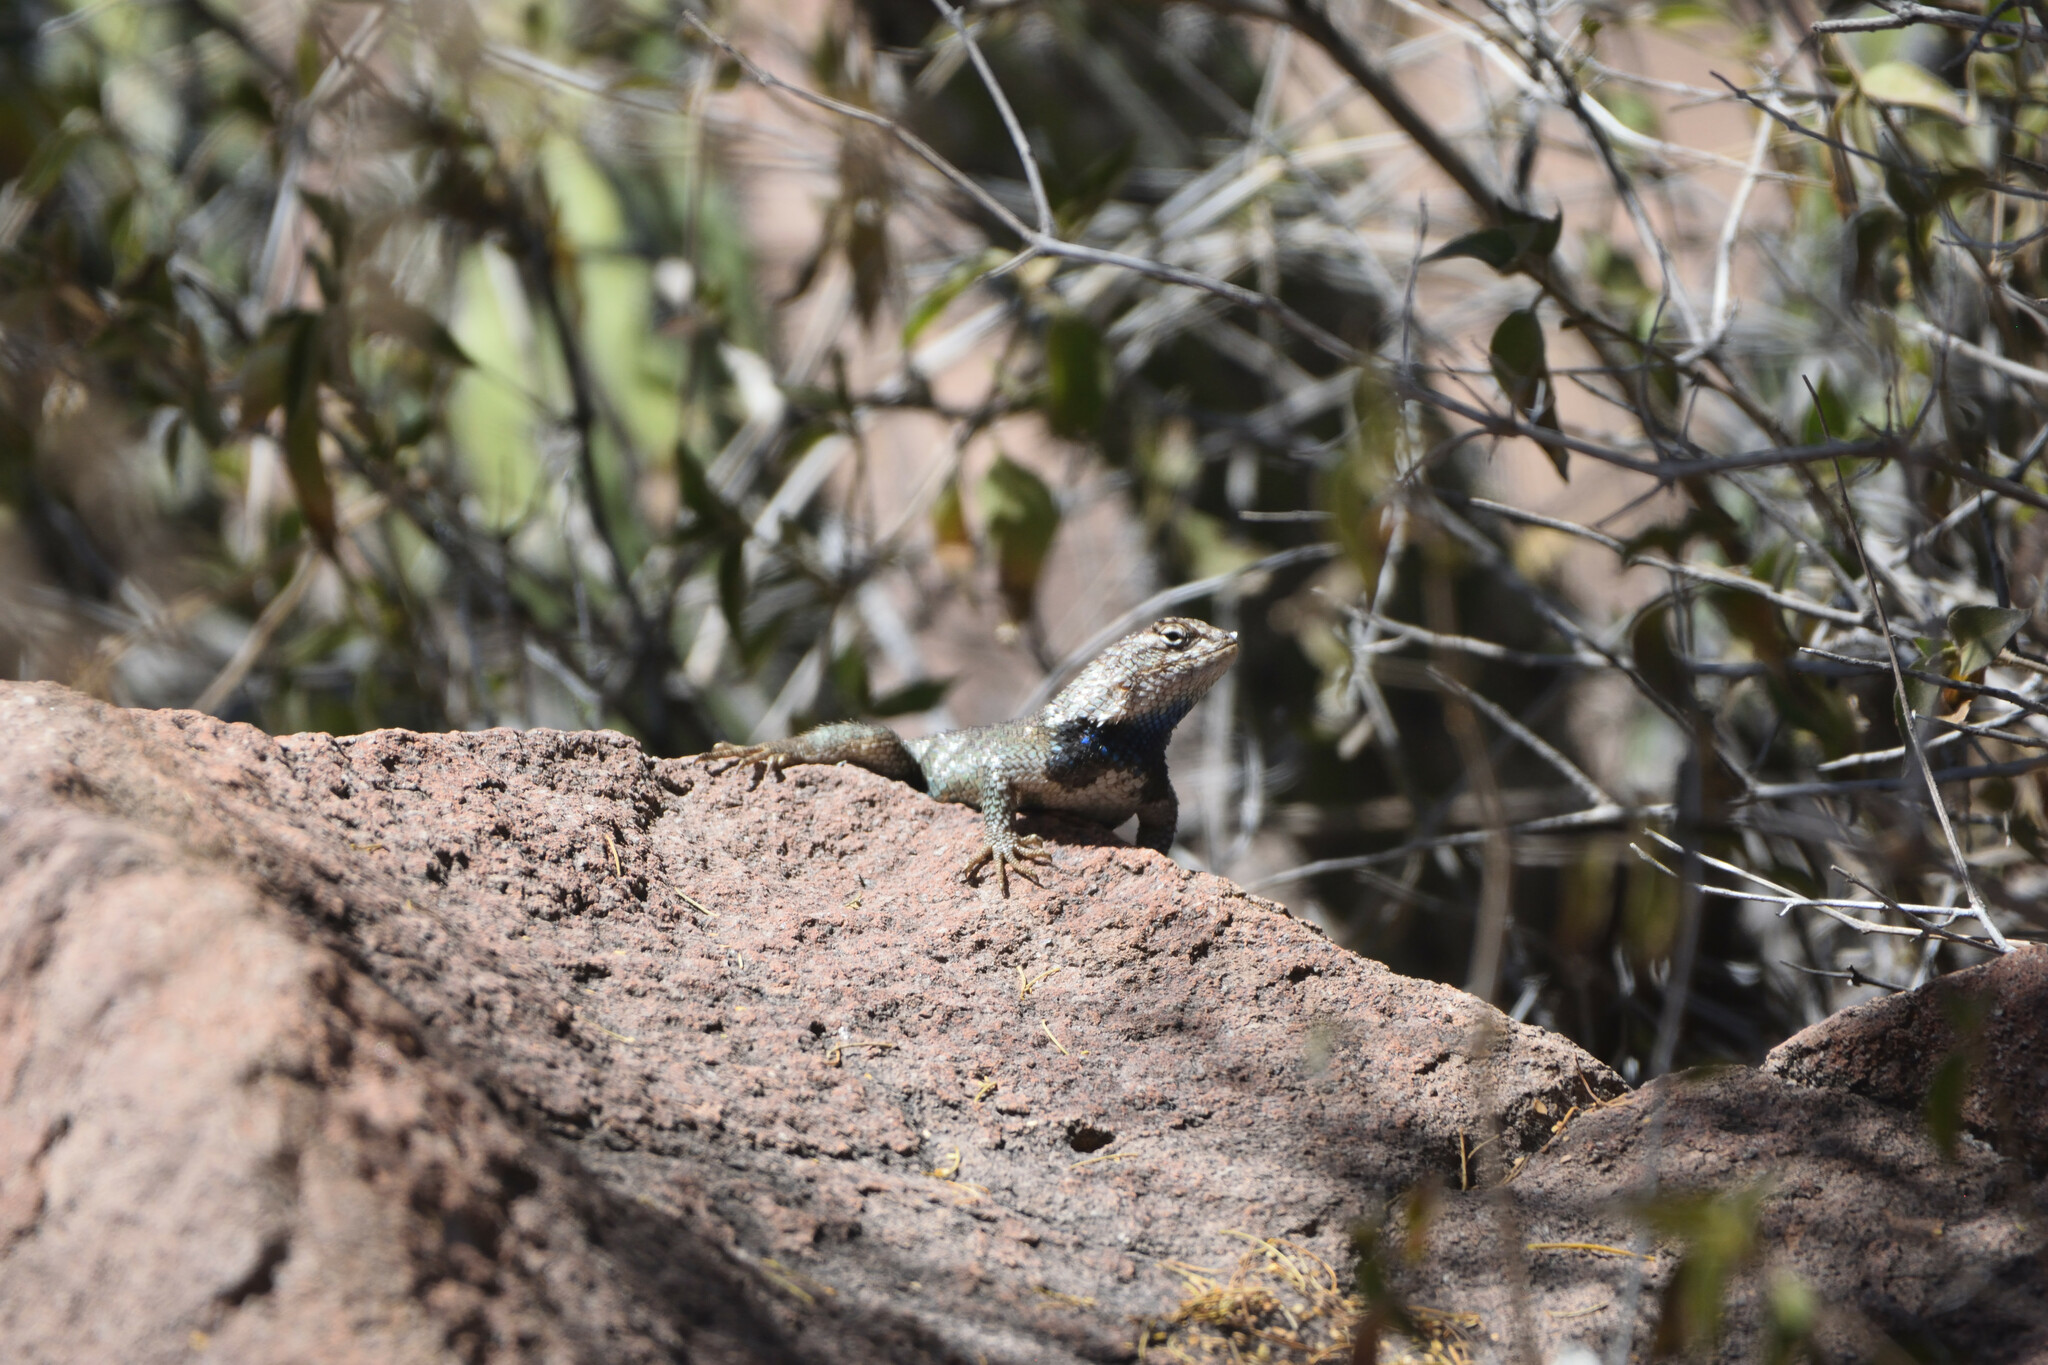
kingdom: Animalia
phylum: Chordata
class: Squamata
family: Phrynosomatidae
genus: Sceloporus
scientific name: Sceloporus orcutti
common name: Granite spiny lizard
